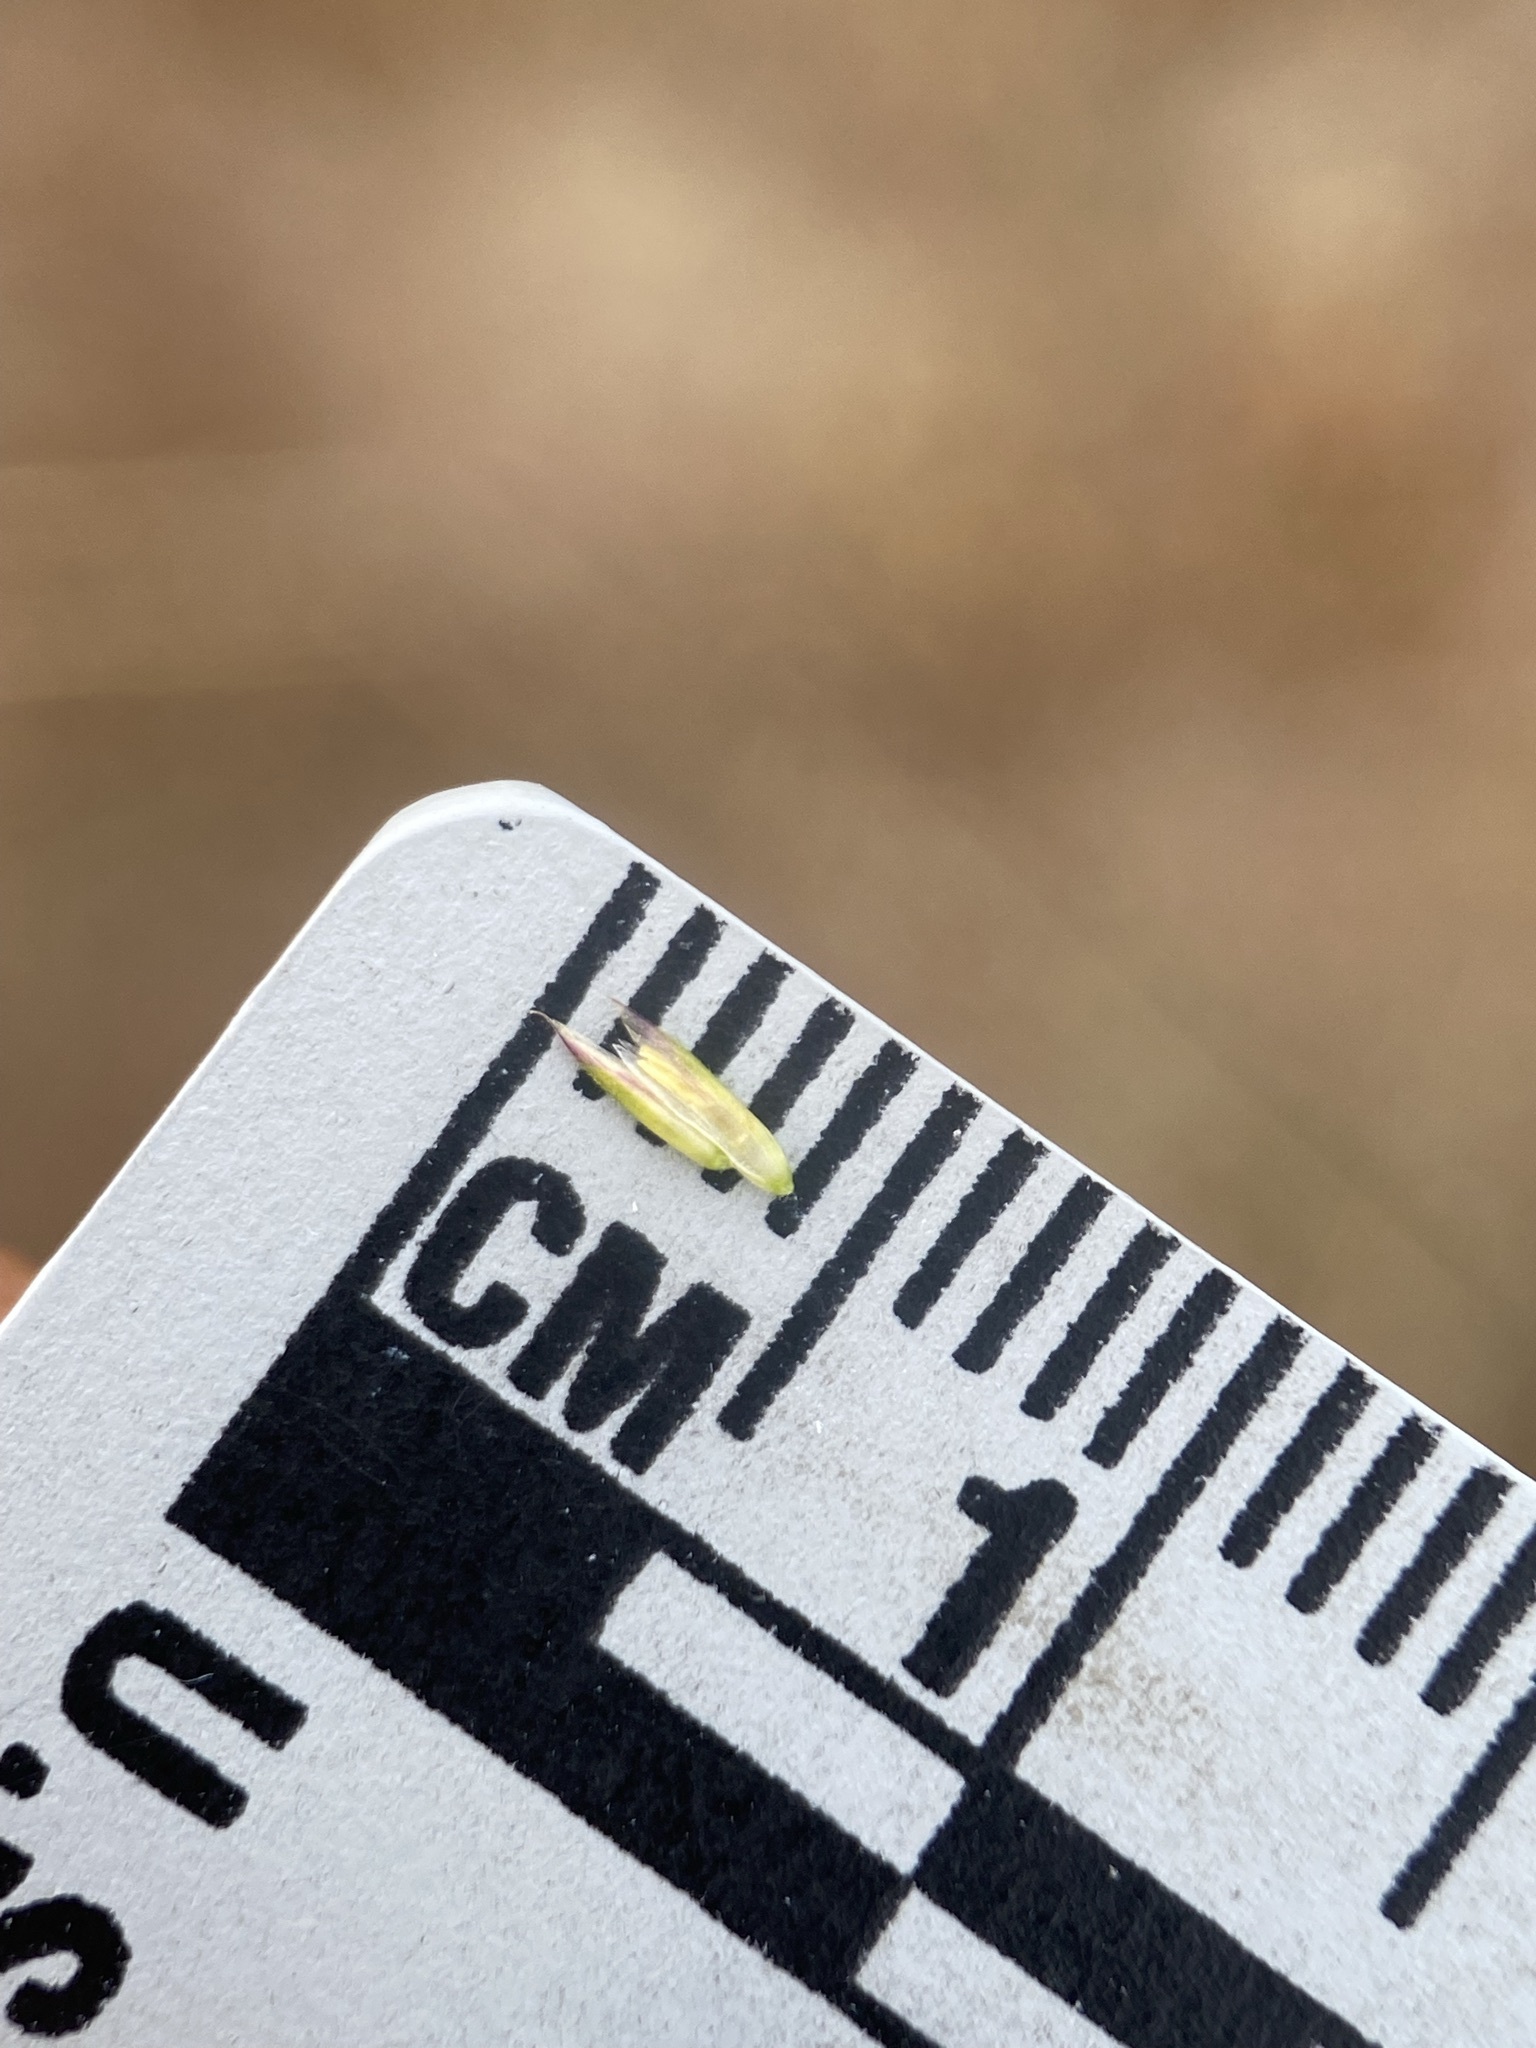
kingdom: Plantae
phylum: Tracheophyta
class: Liliopsida
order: Poales
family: Poaceae
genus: Koeleria
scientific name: Koeleria macrantha
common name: Crested hair-grass
